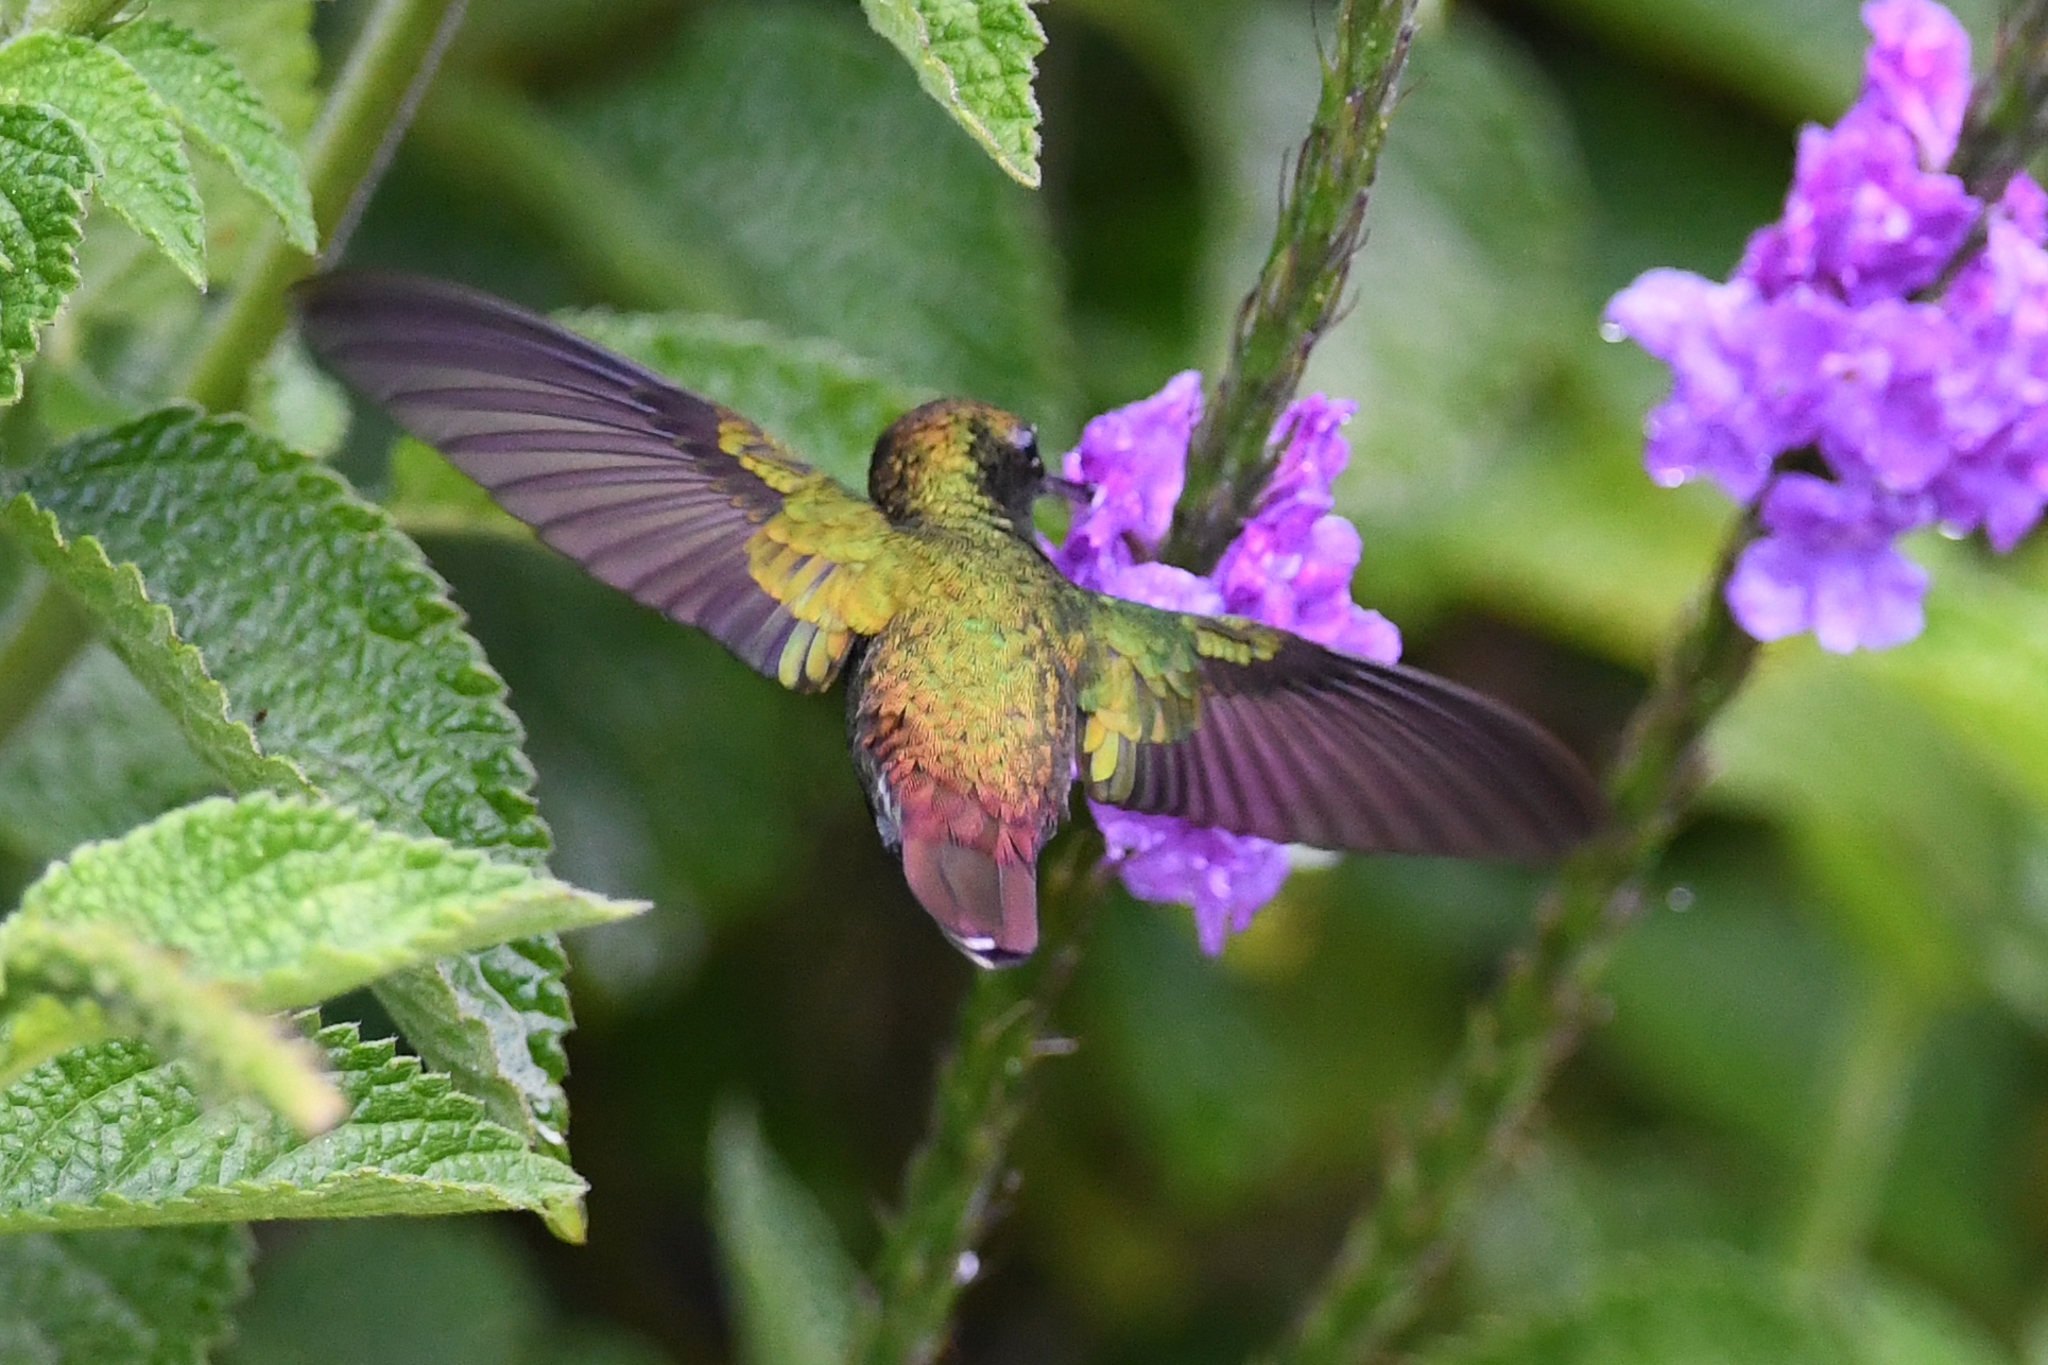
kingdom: Animalia
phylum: Chordata
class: Aves
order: Apodiformes
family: Trochilidae
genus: Microchera
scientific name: Microchera cupreiceps
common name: Coppery-headed emerald
